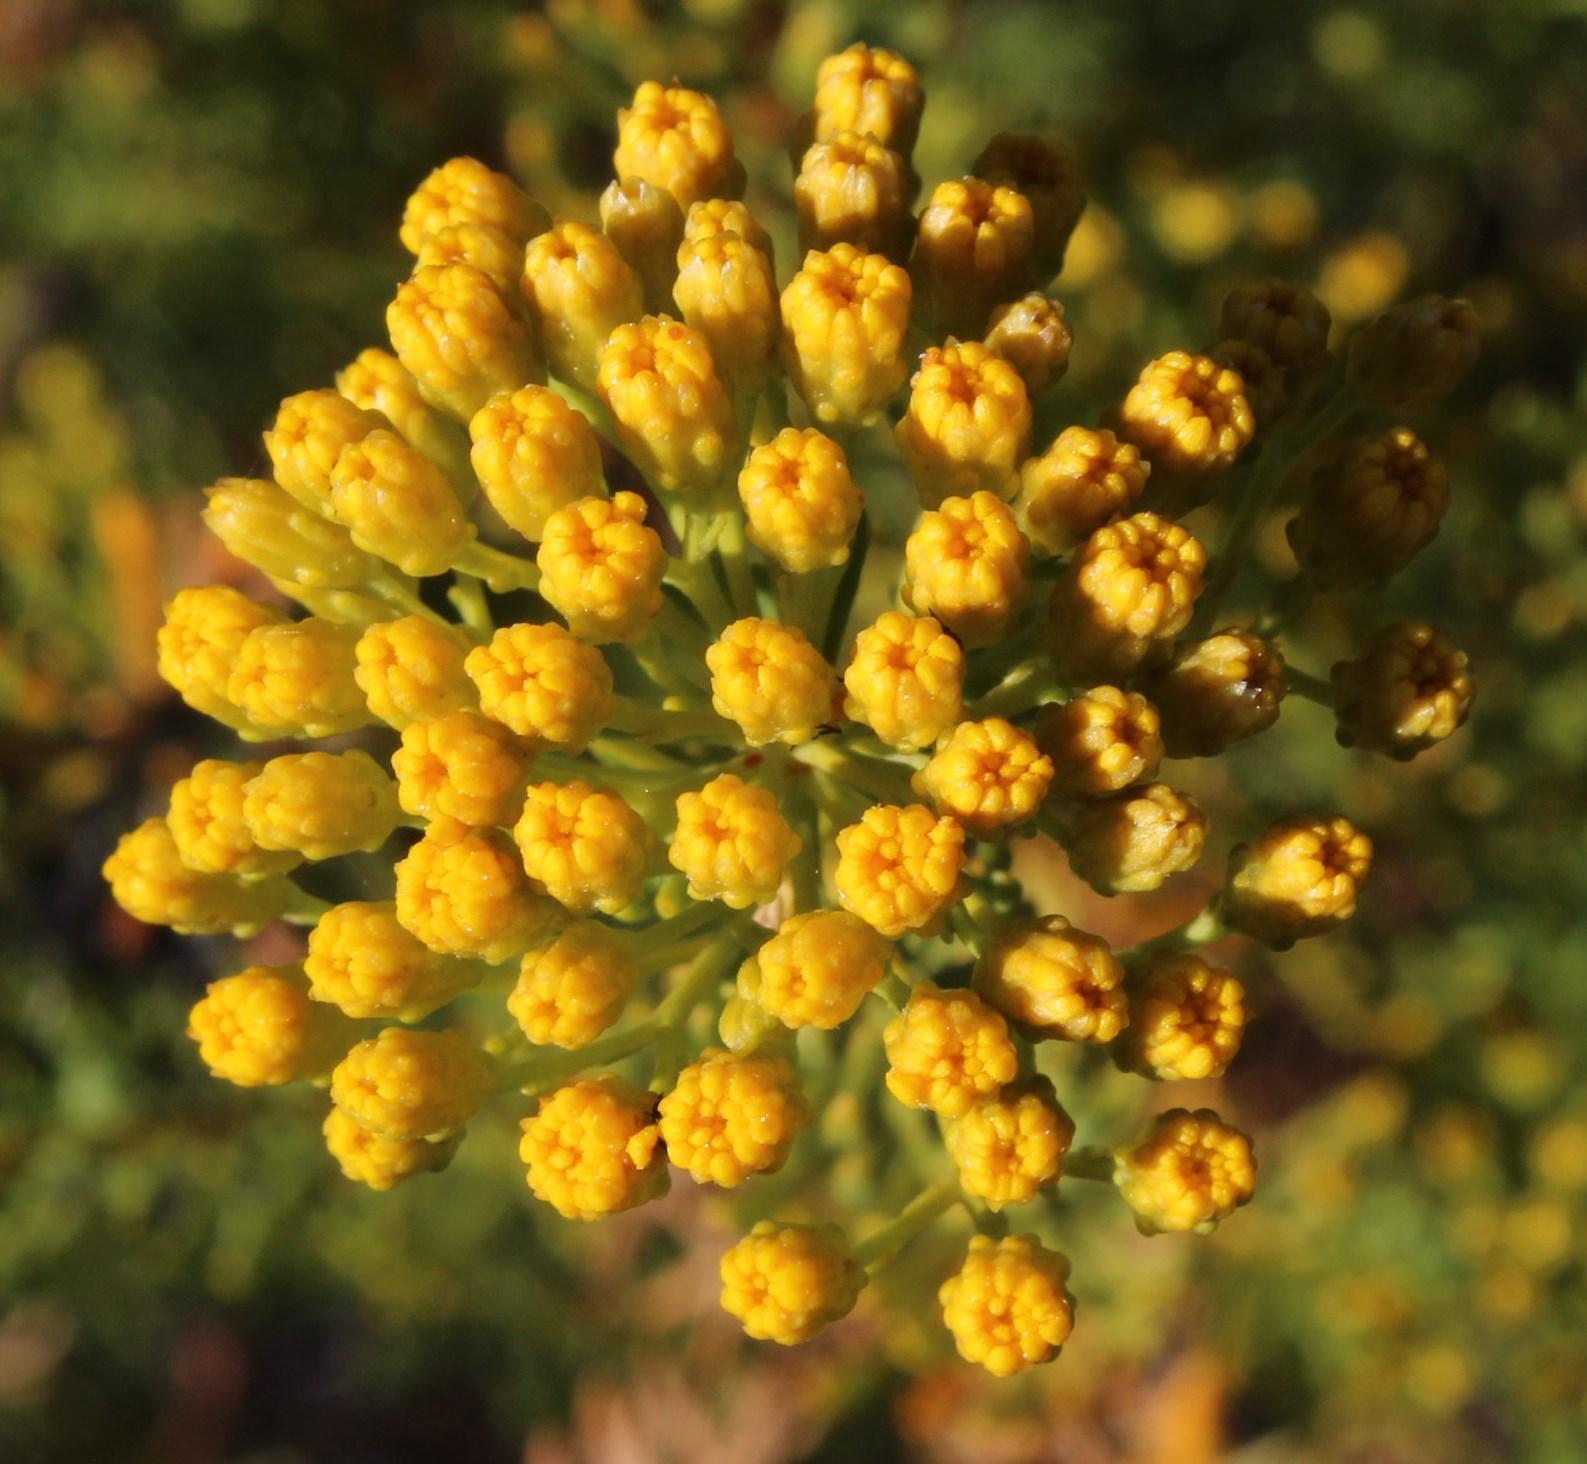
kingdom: Plantae
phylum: Tracheophyta
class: Magnoliopsida
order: Asterales
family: Asteraceae
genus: Athanasia
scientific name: Athanasia flexuosa
